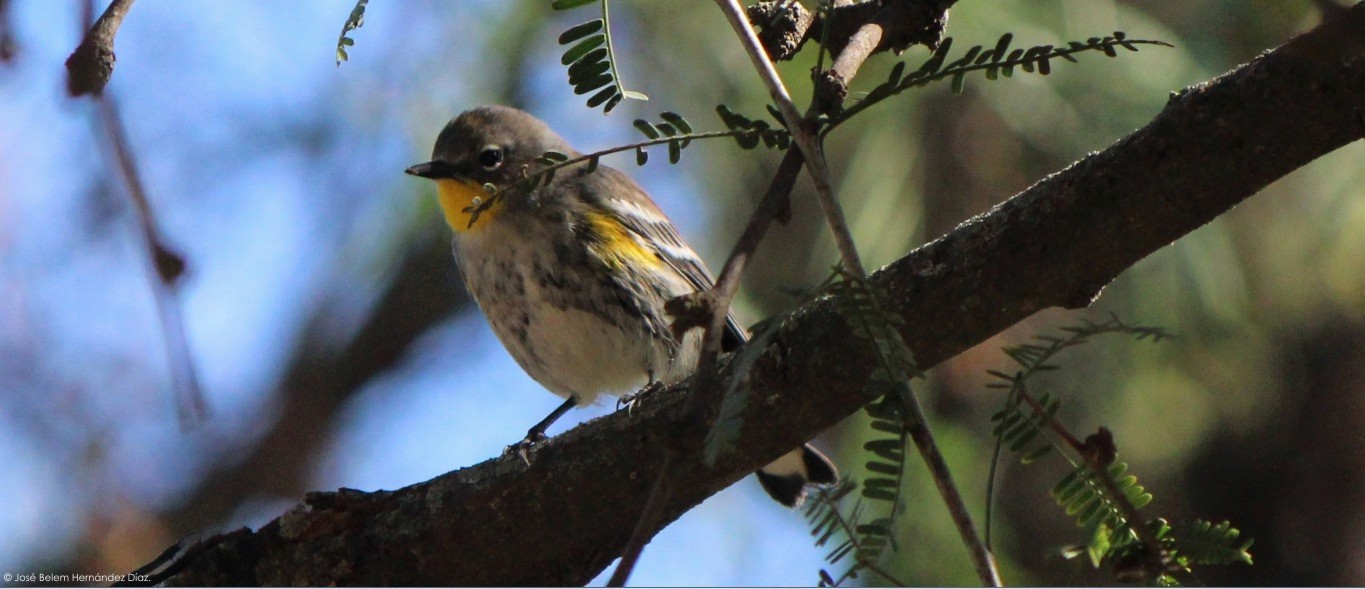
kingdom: Animalia
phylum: Chordata
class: Aves
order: Passeriformes
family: Parulidae
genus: Setophaga
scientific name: Setophaga auduboni
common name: Audubon's warbler
